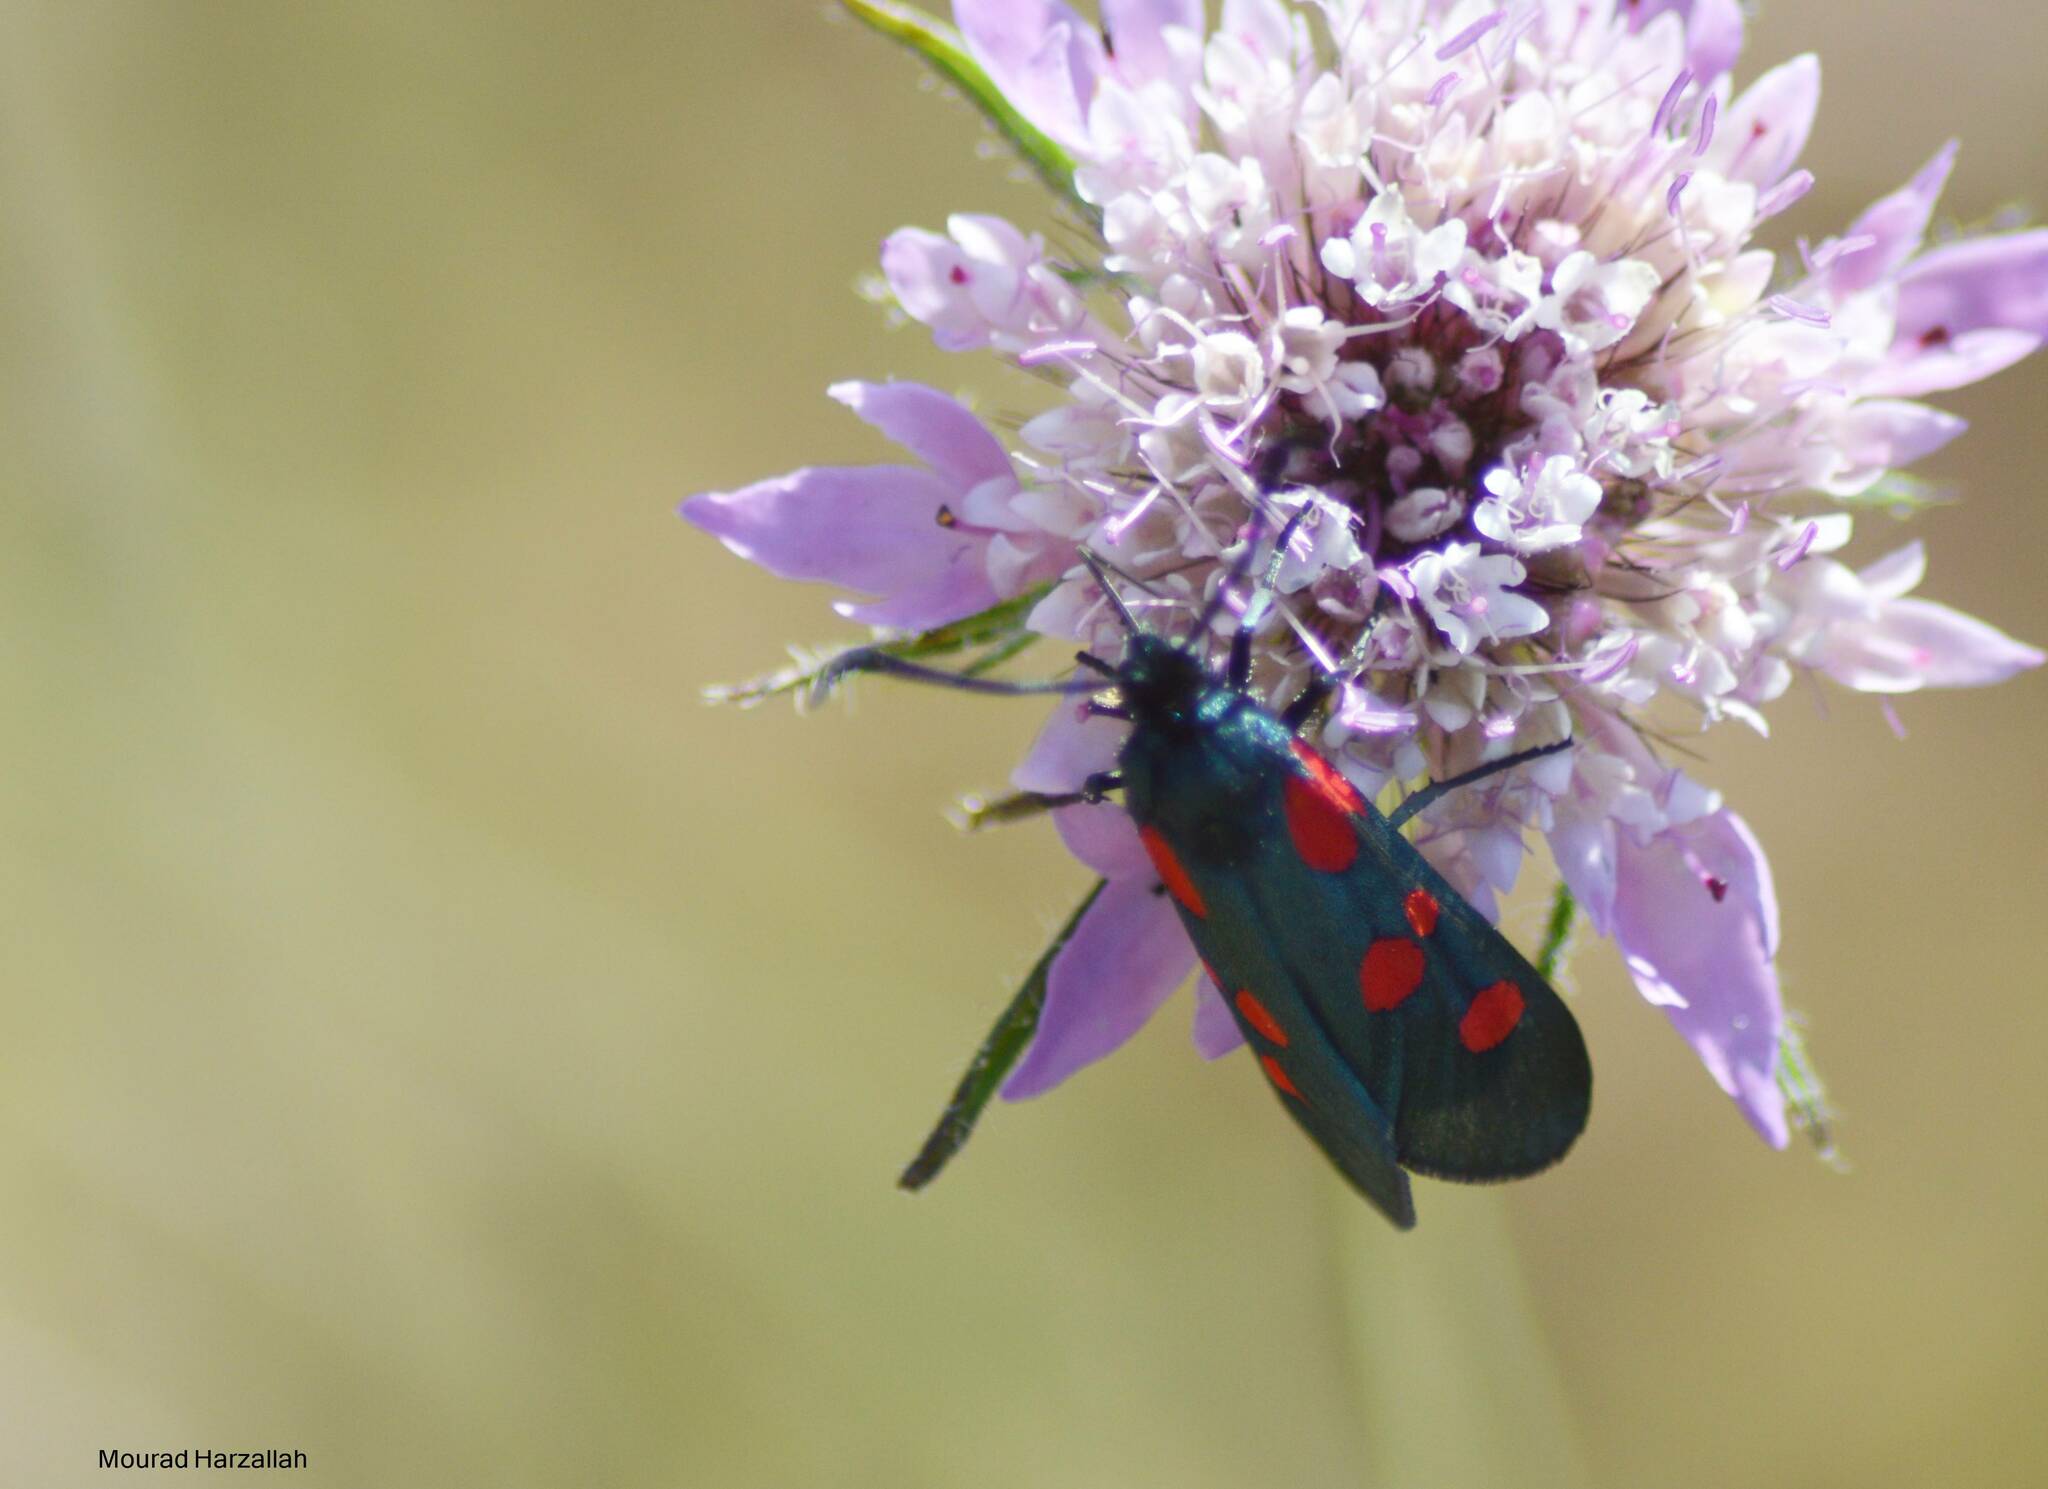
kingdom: Animalia
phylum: Arthropoda
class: Insecta
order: Lepidoptera
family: Zygaenidae
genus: Zygaena
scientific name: Zygaena trifolii
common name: Five-spot burnet
